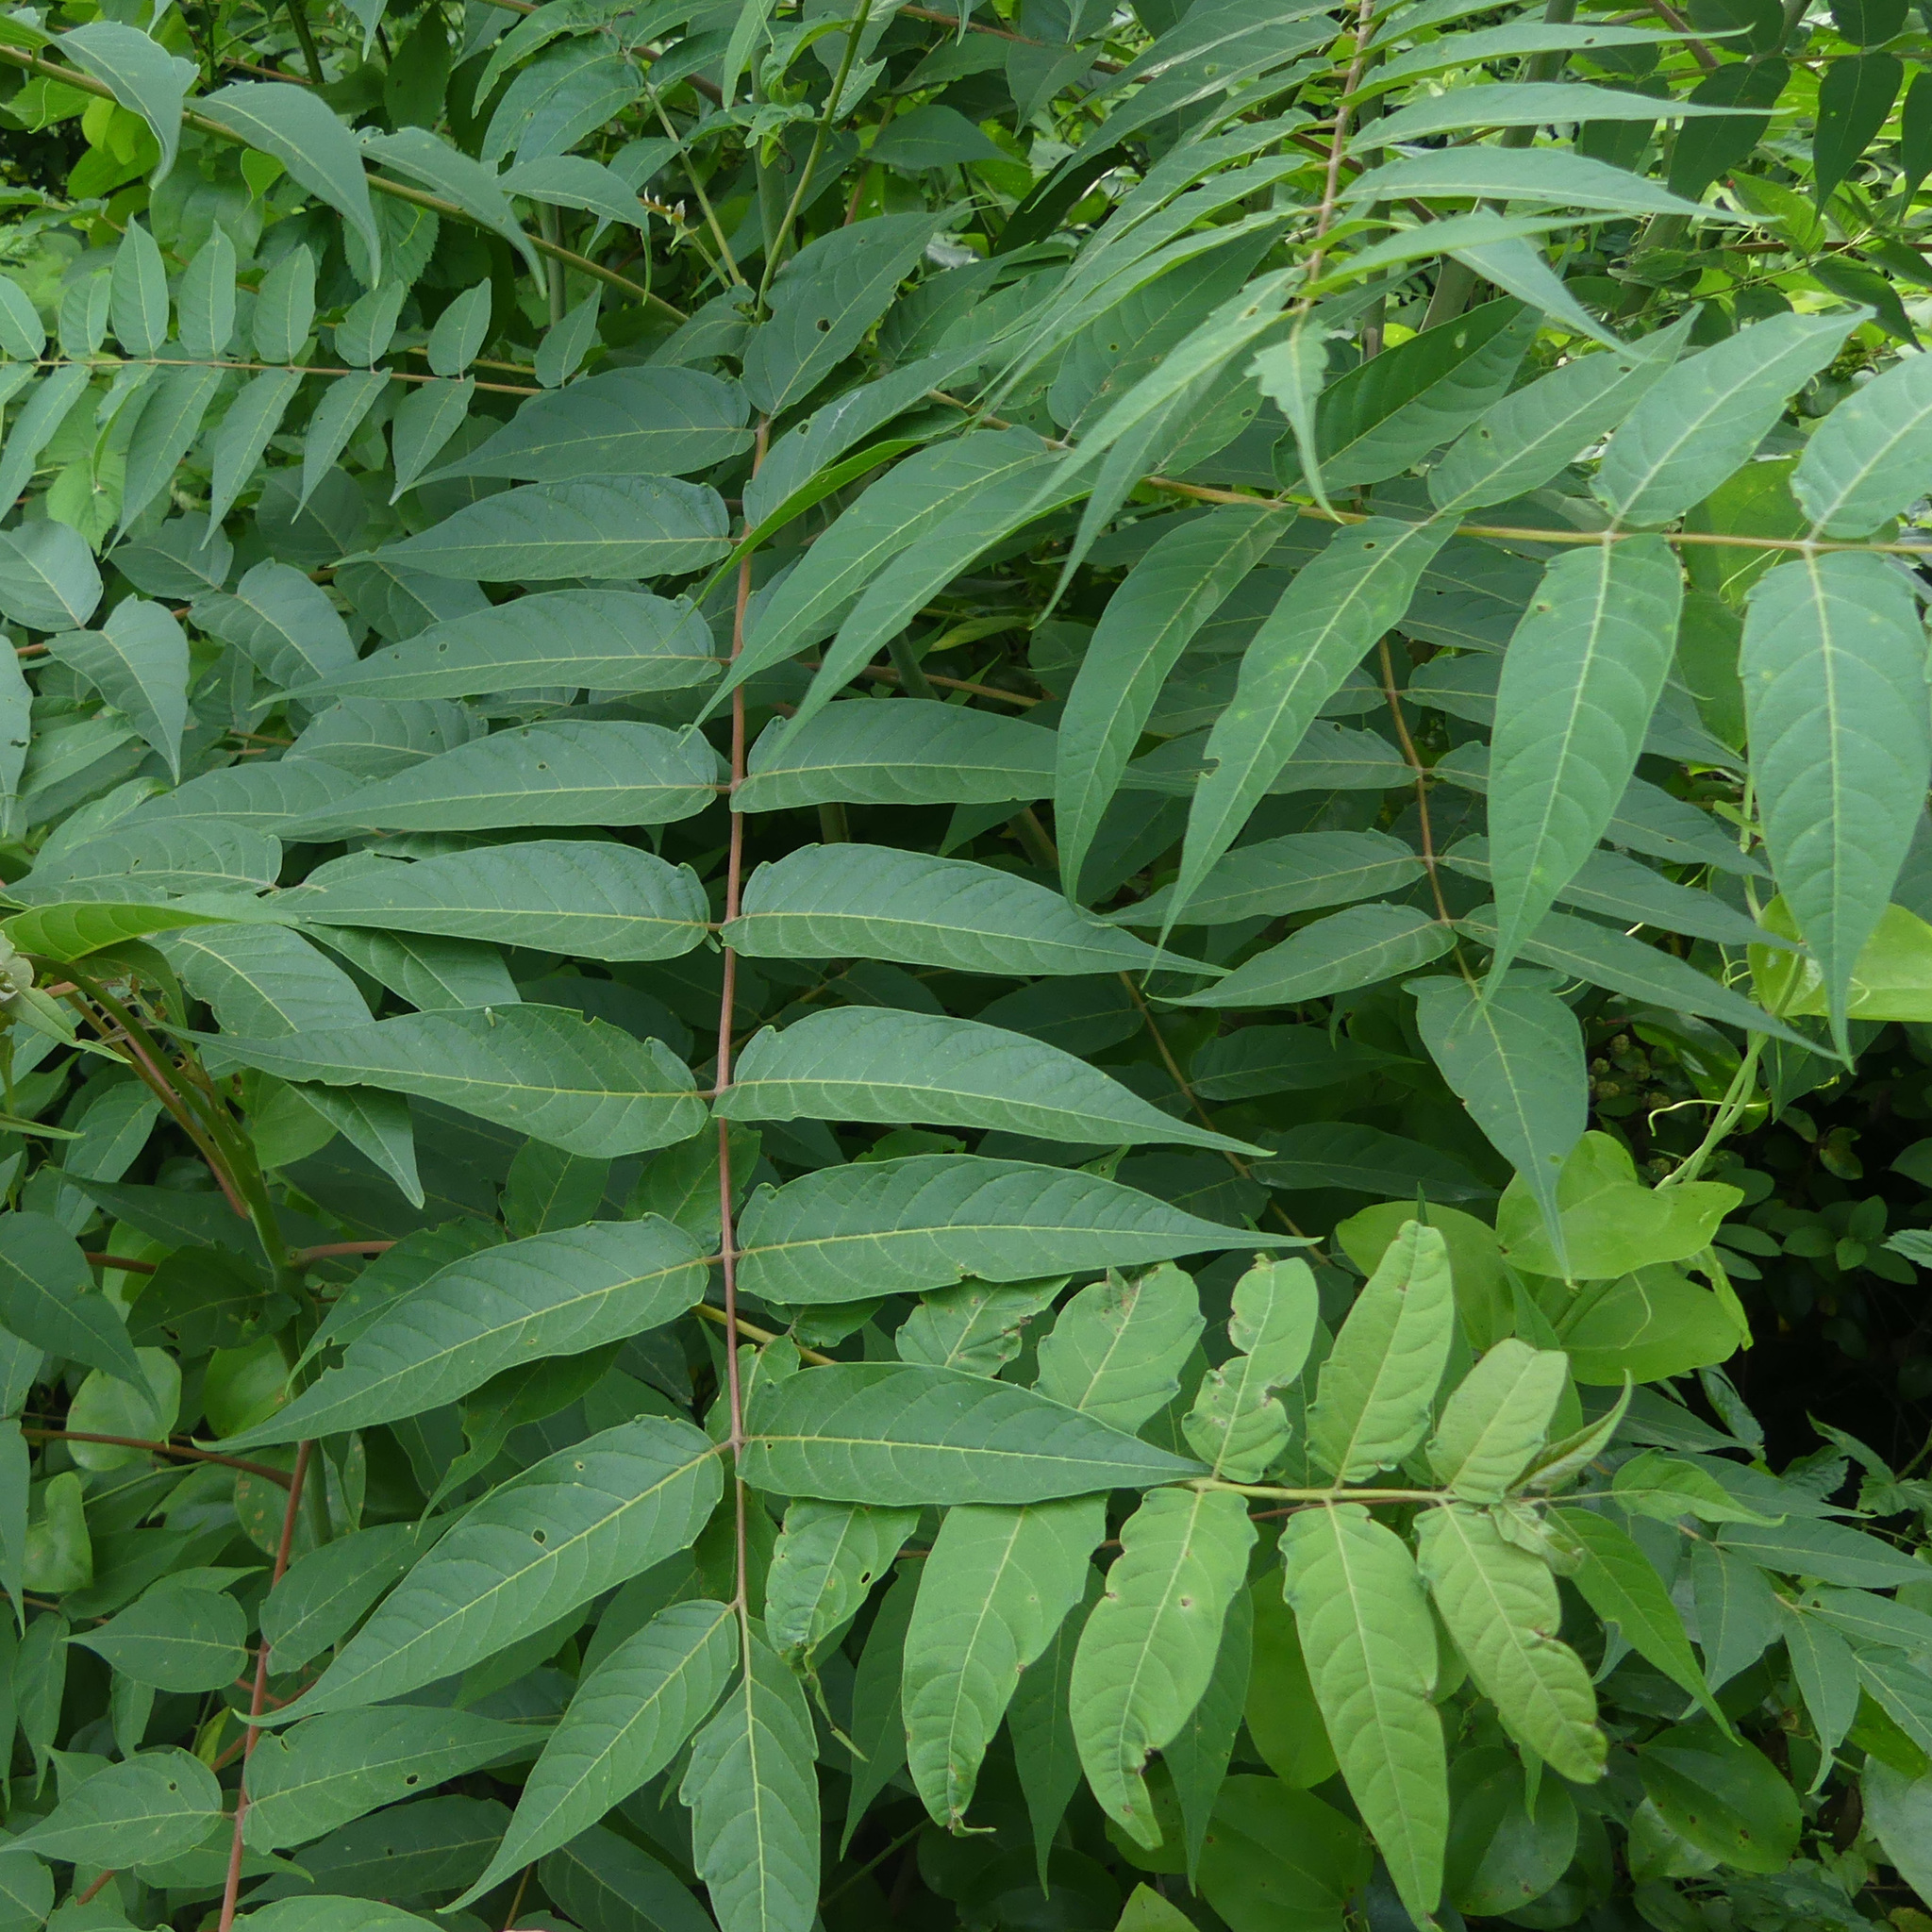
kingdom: Plantae
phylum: Tracheophyta
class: Magnoliopsida
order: Sapindales
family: Simaroubaceae
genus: Ailanthus
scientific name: Ailanthus altissima
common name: Tree-of-heaven
